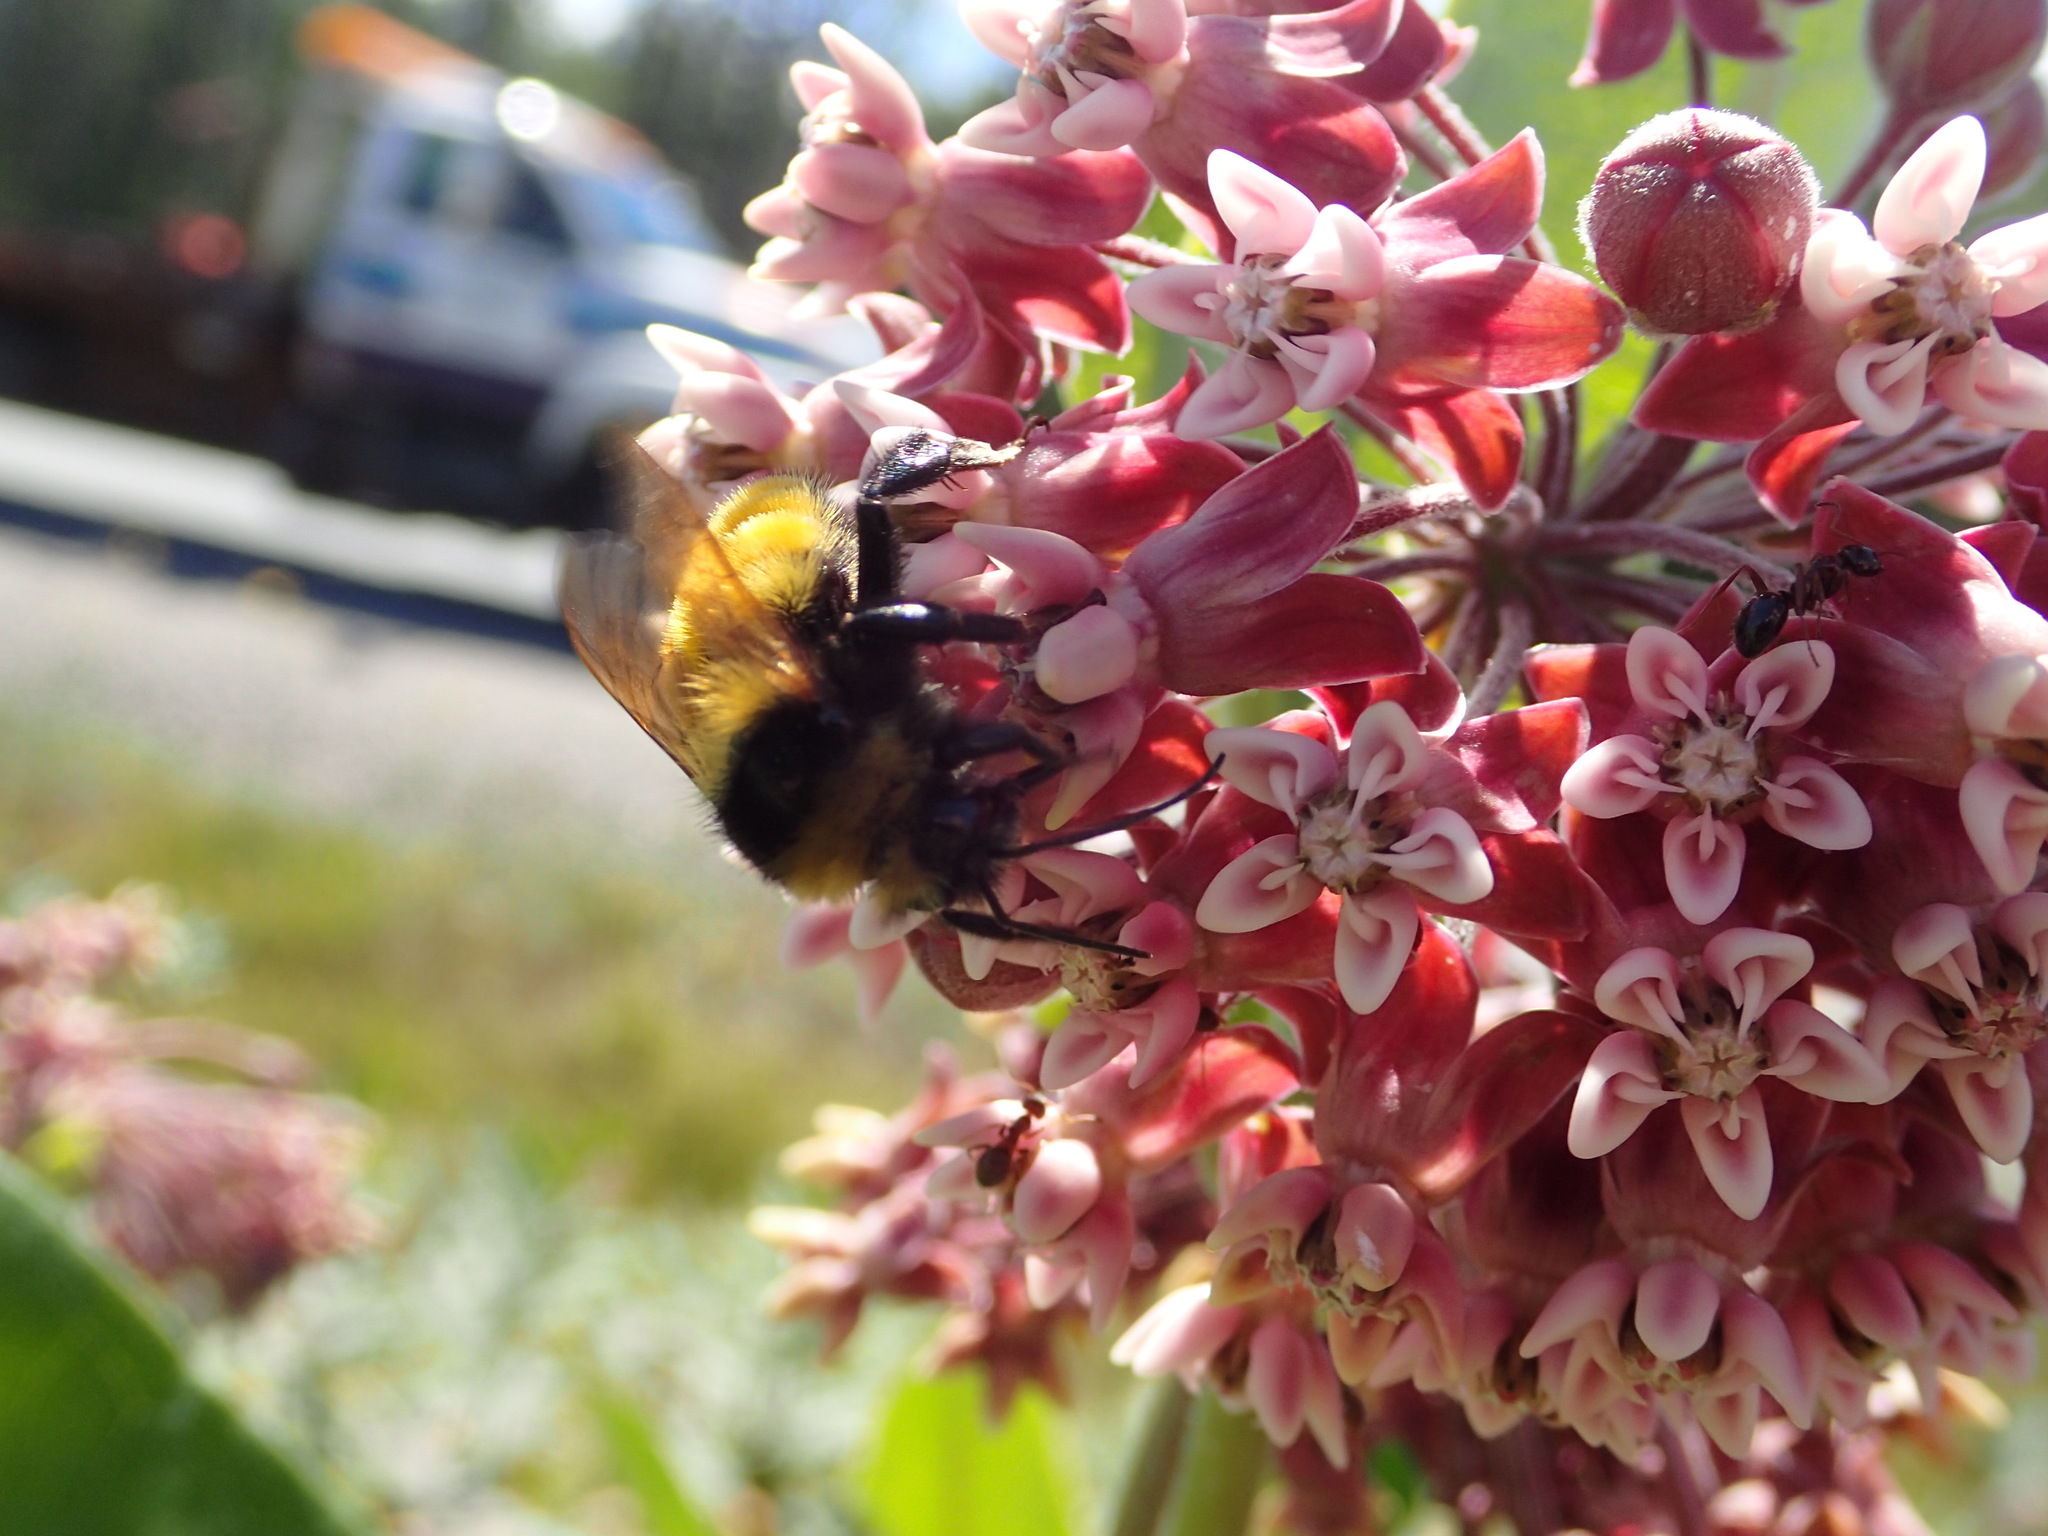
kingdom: Animalia
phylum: Arthropoda
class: Insecta
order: Hymenoptera
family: Apidae
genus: Bombus
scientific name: Bombus borealis
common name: Northern amber bumble bee
